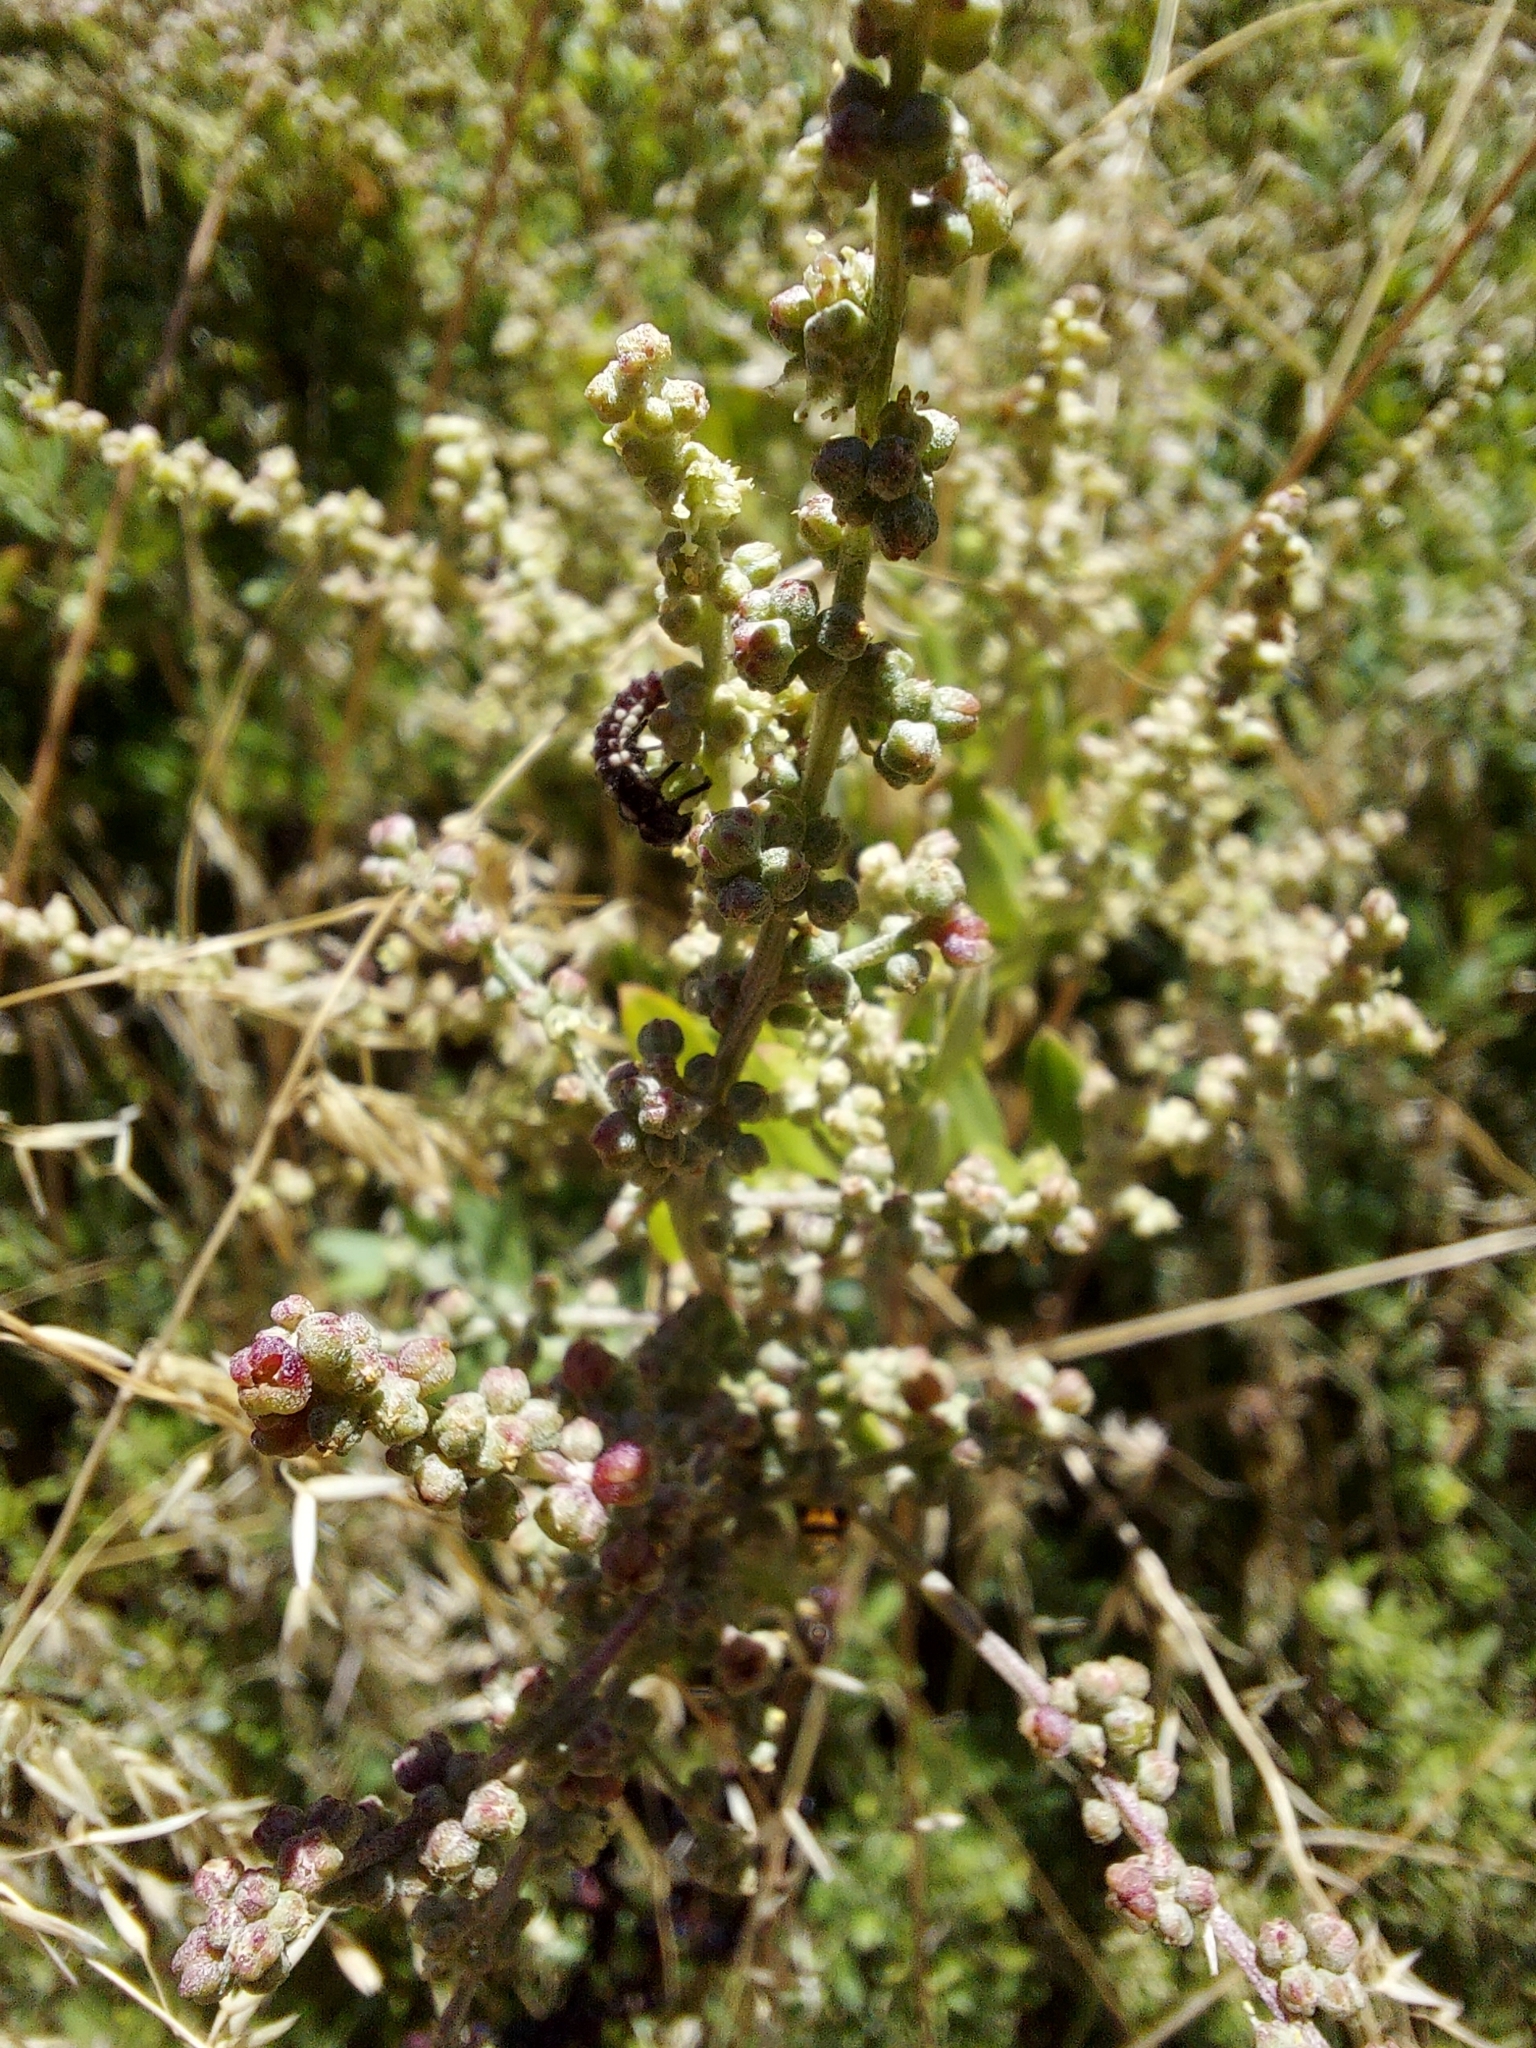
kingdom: Plantae
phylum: Tracheophyta
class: Magnoliopsida
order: Caryophyllales
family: Amaranthaceae
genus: Chenopodium
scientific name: Chenopodium candolleanum
